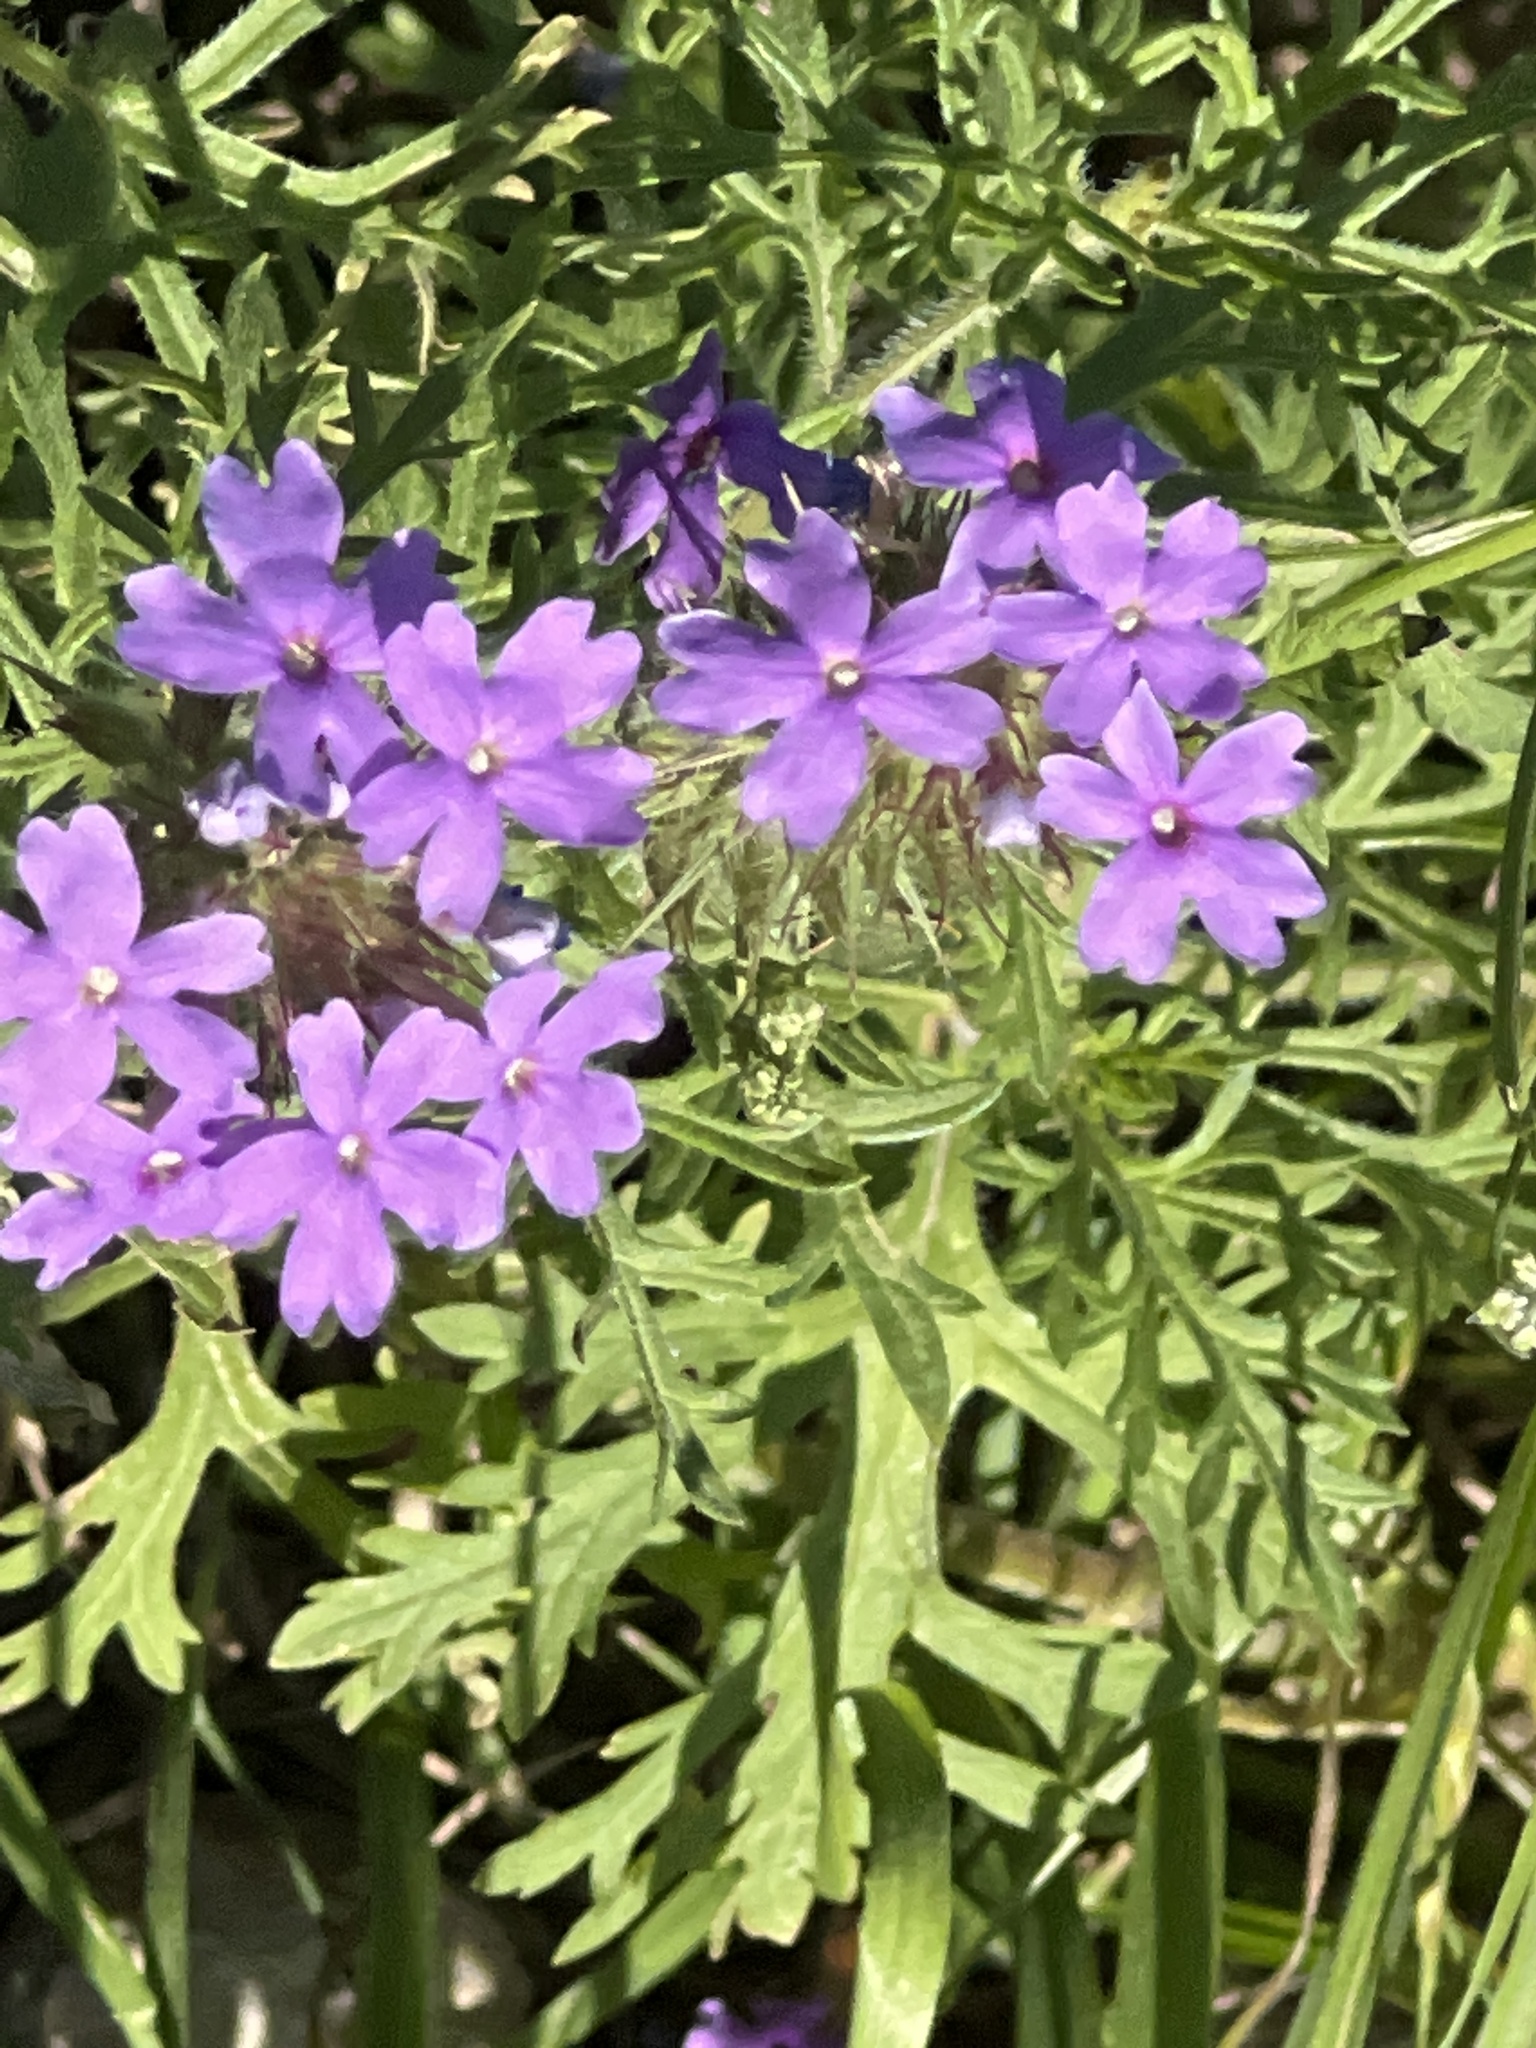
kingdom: Plantae
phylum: Tracheophyta
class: Magnoliopsida
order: Lamiales
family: Verbenaceae
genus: Verbena
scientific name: Verbena bipinnatifida
